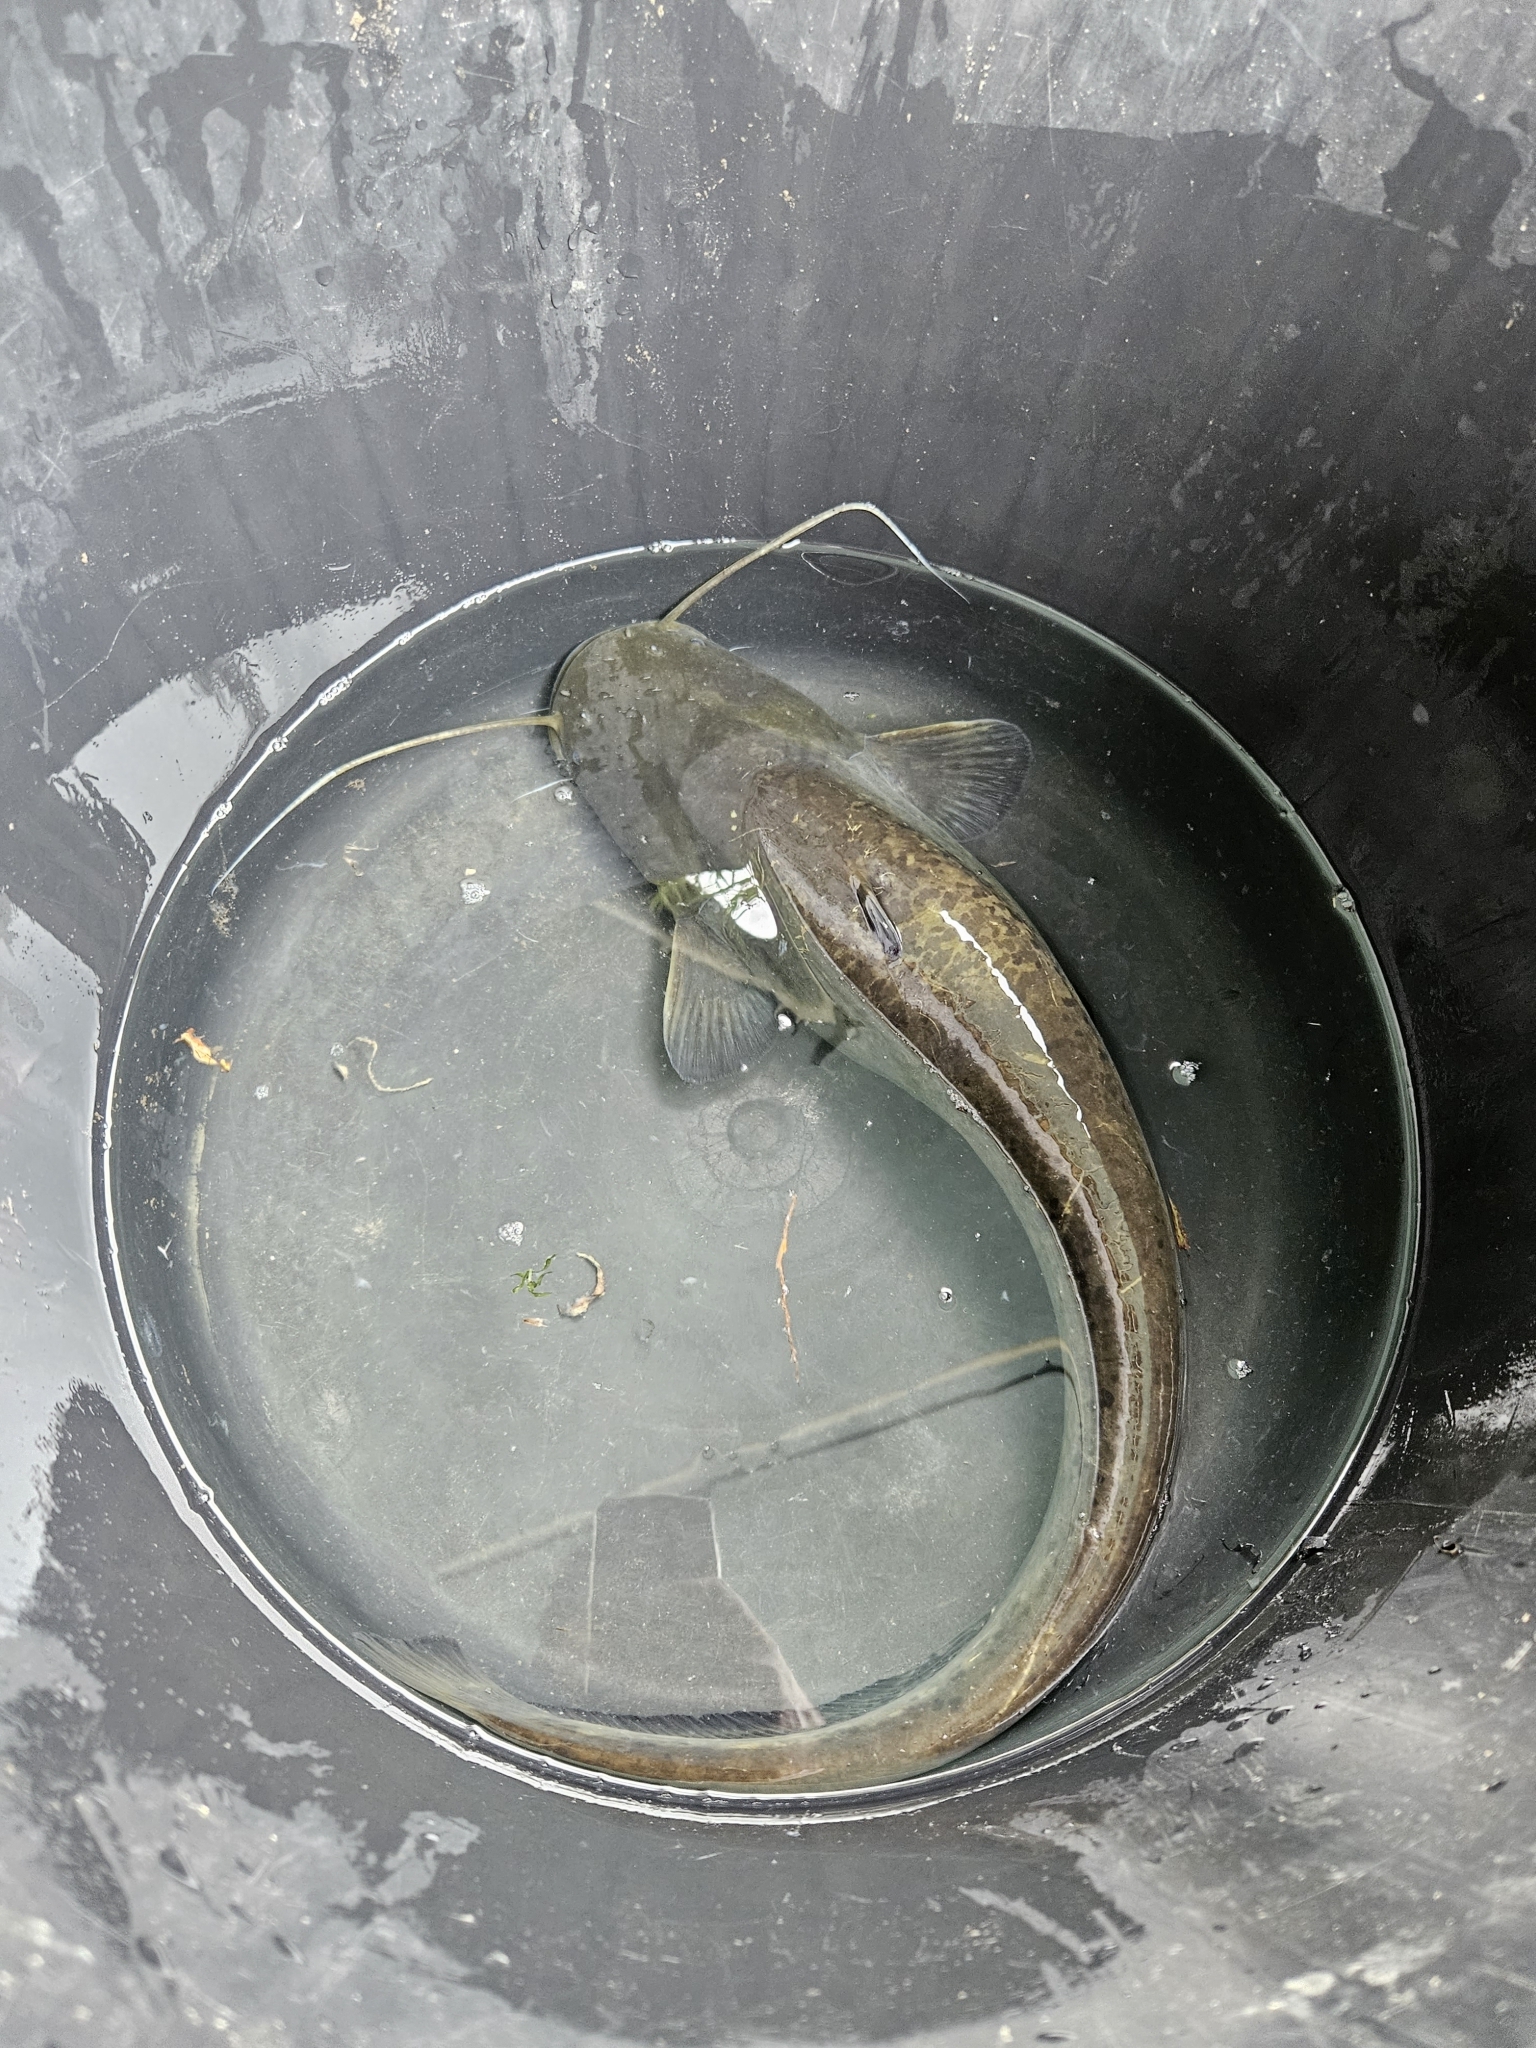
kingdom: Animalia
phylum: Chordata
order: Siluriformes
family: Siluridae
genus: Silurus
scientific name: Silurus glanis
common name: Wels
